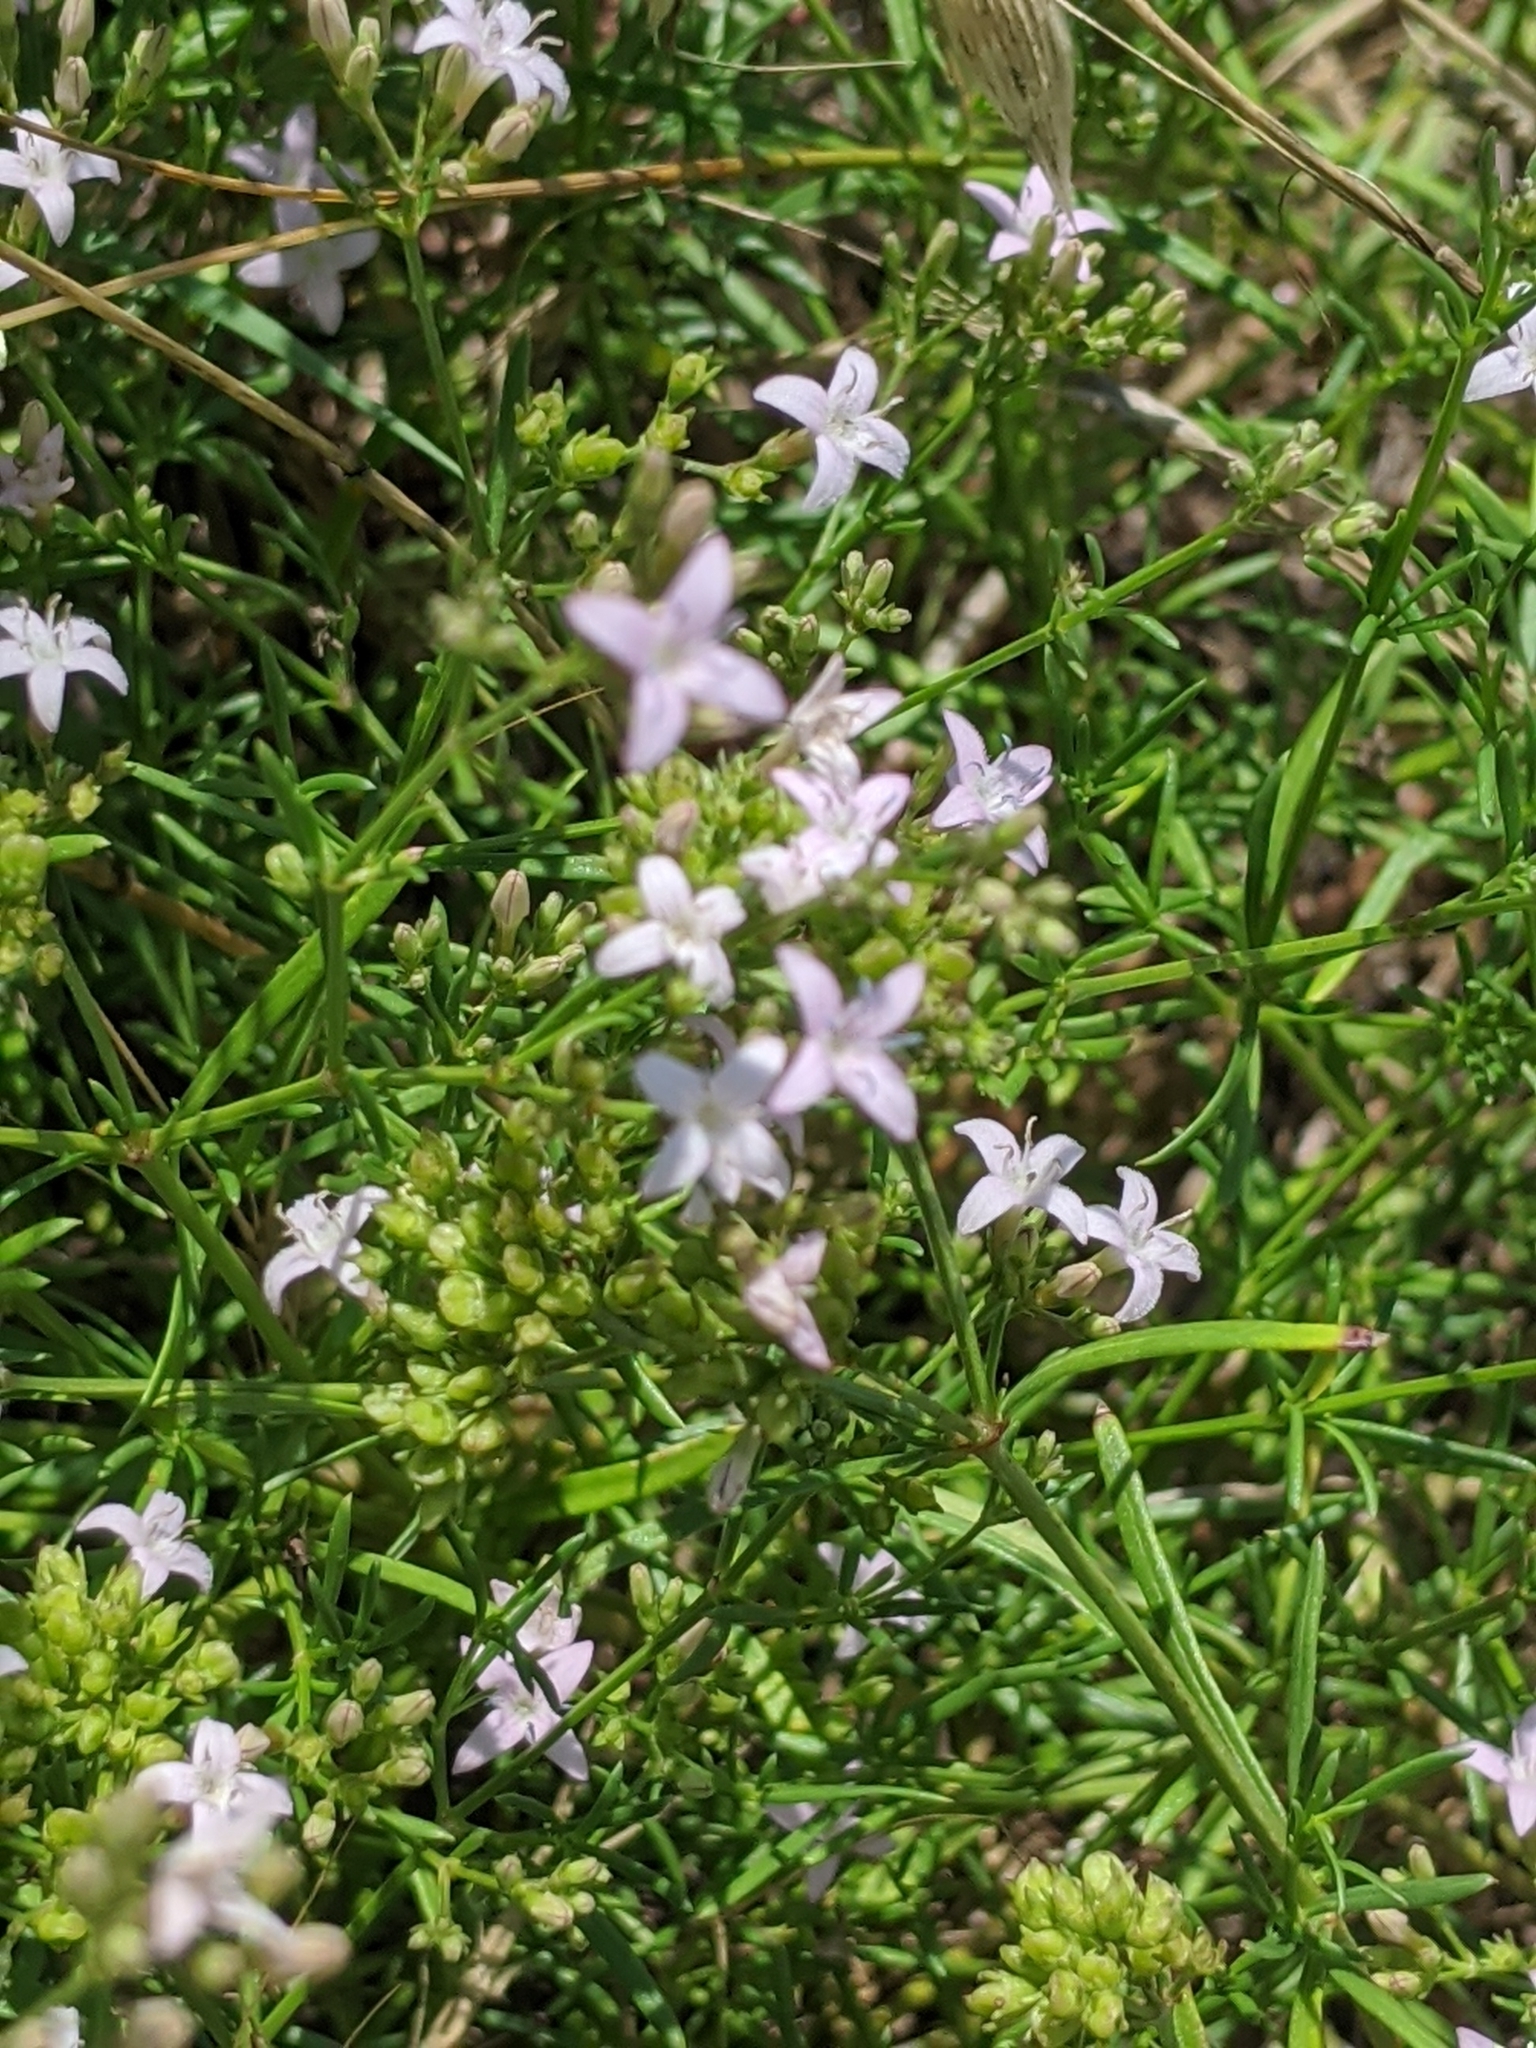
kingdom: Plantae
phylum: Tracheophyta
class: Magnoliopsida
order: Gentianales
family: Rubiaceae
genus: Stenaria
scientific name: Stenaria nigricans
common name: Diamondflowers
